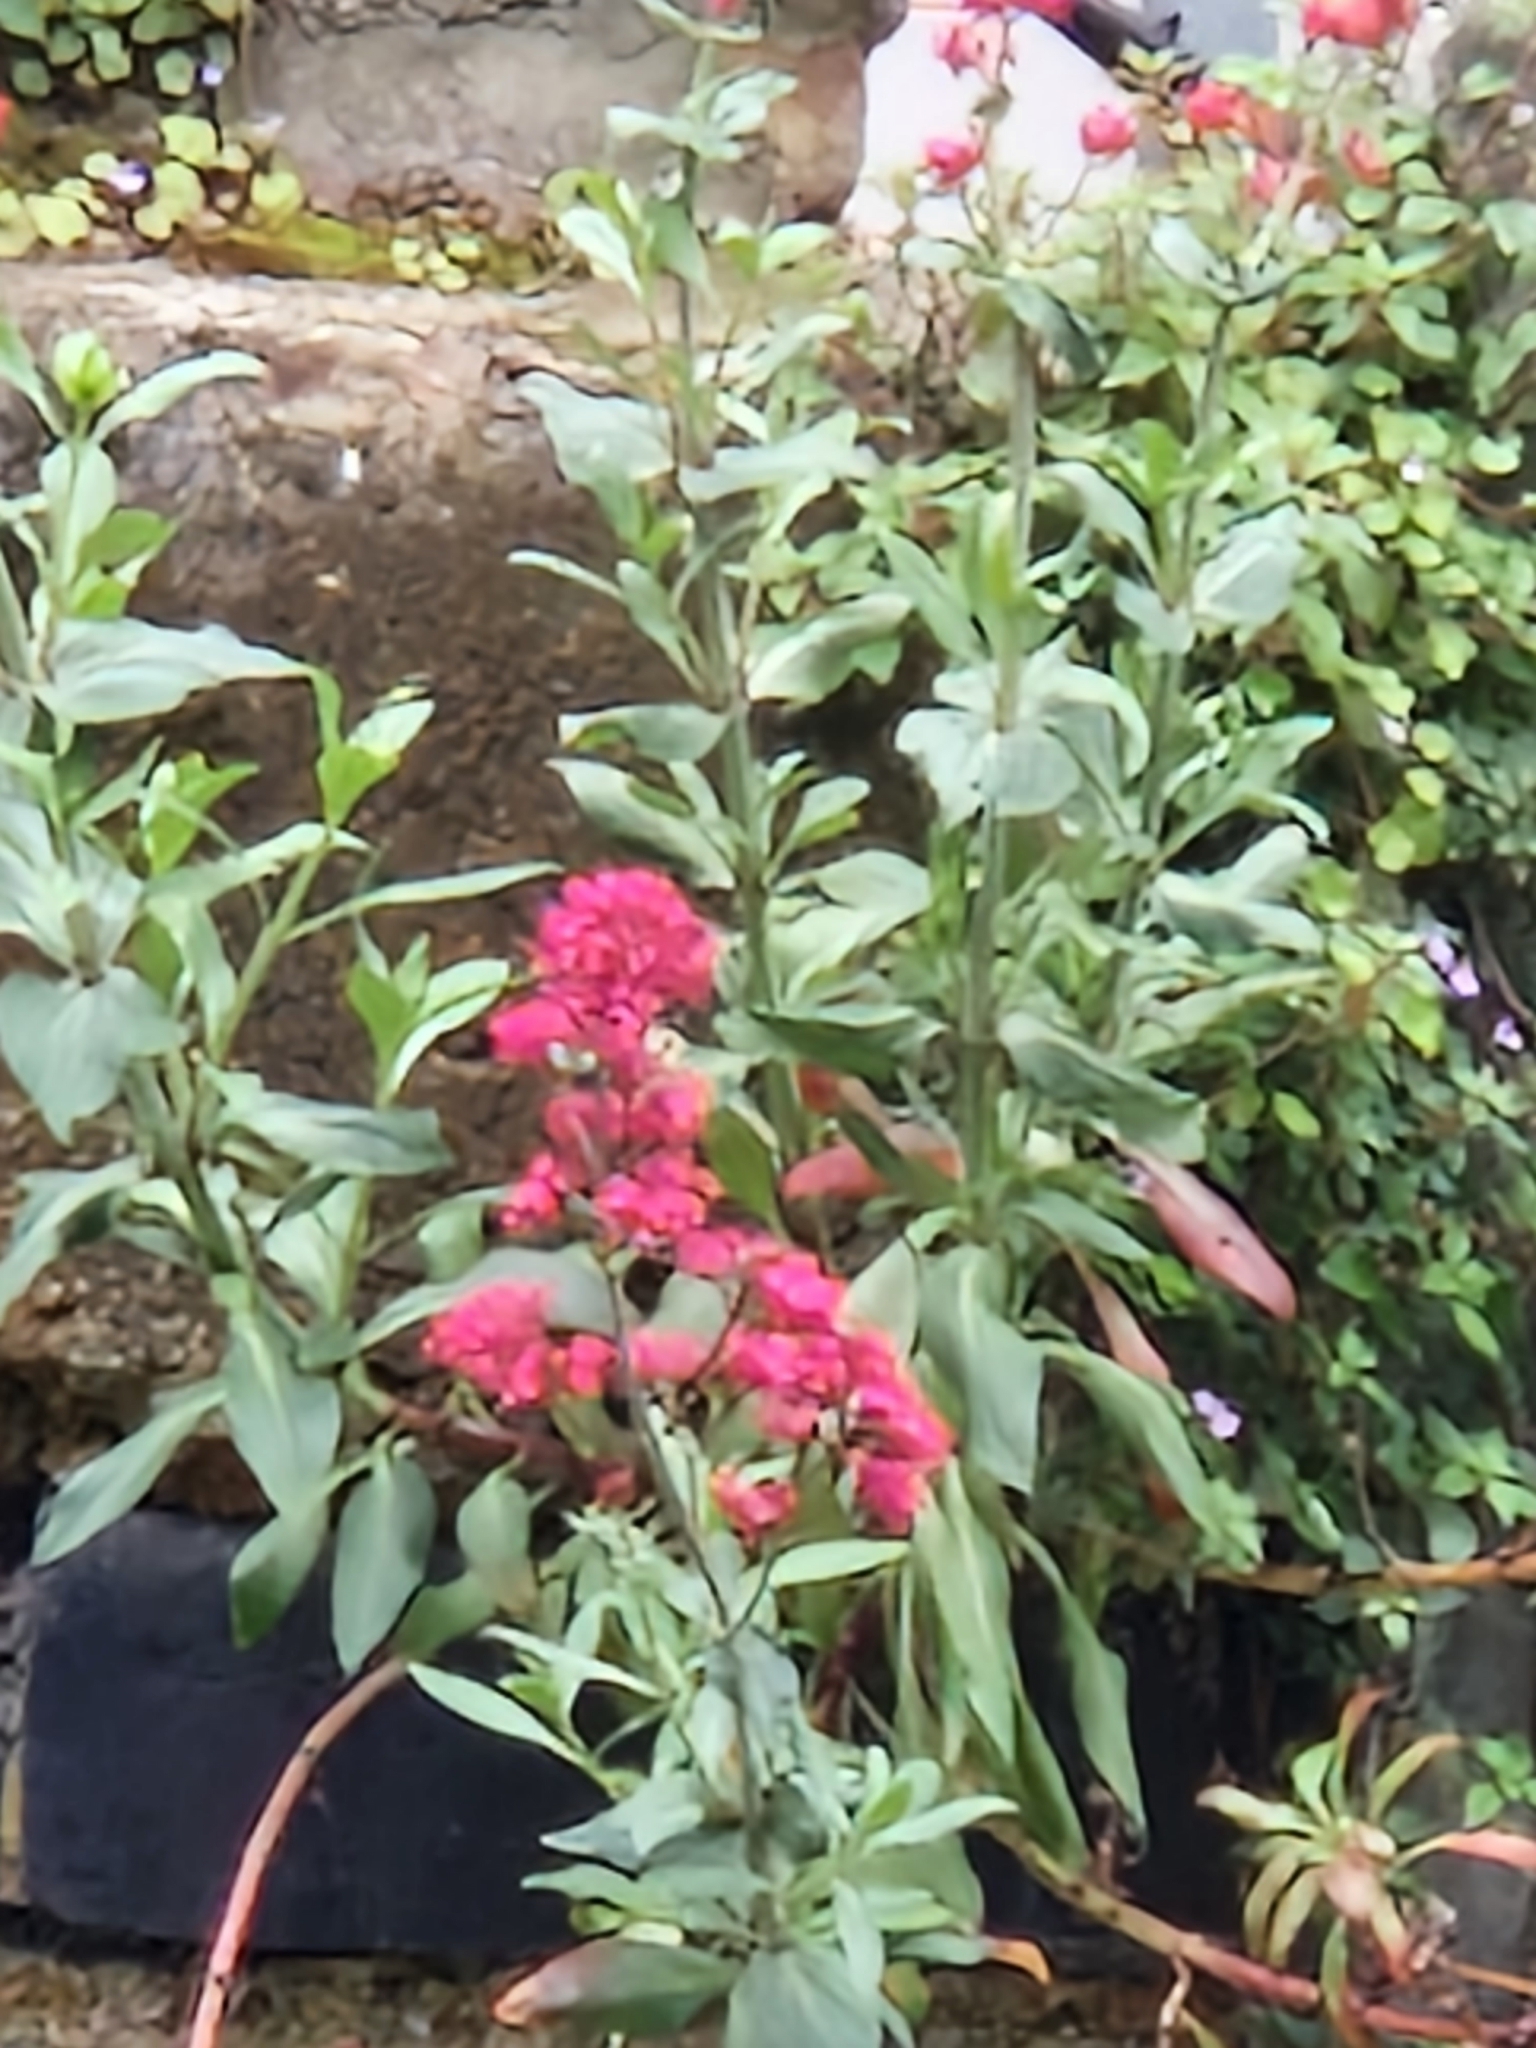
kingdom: Plantae
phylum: Tracheophyta
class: Magnoliopsida
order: Dipsacales
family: Caprifoliaceae
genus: Centranthus
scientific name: Centranthus ruber
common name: Red valerian
